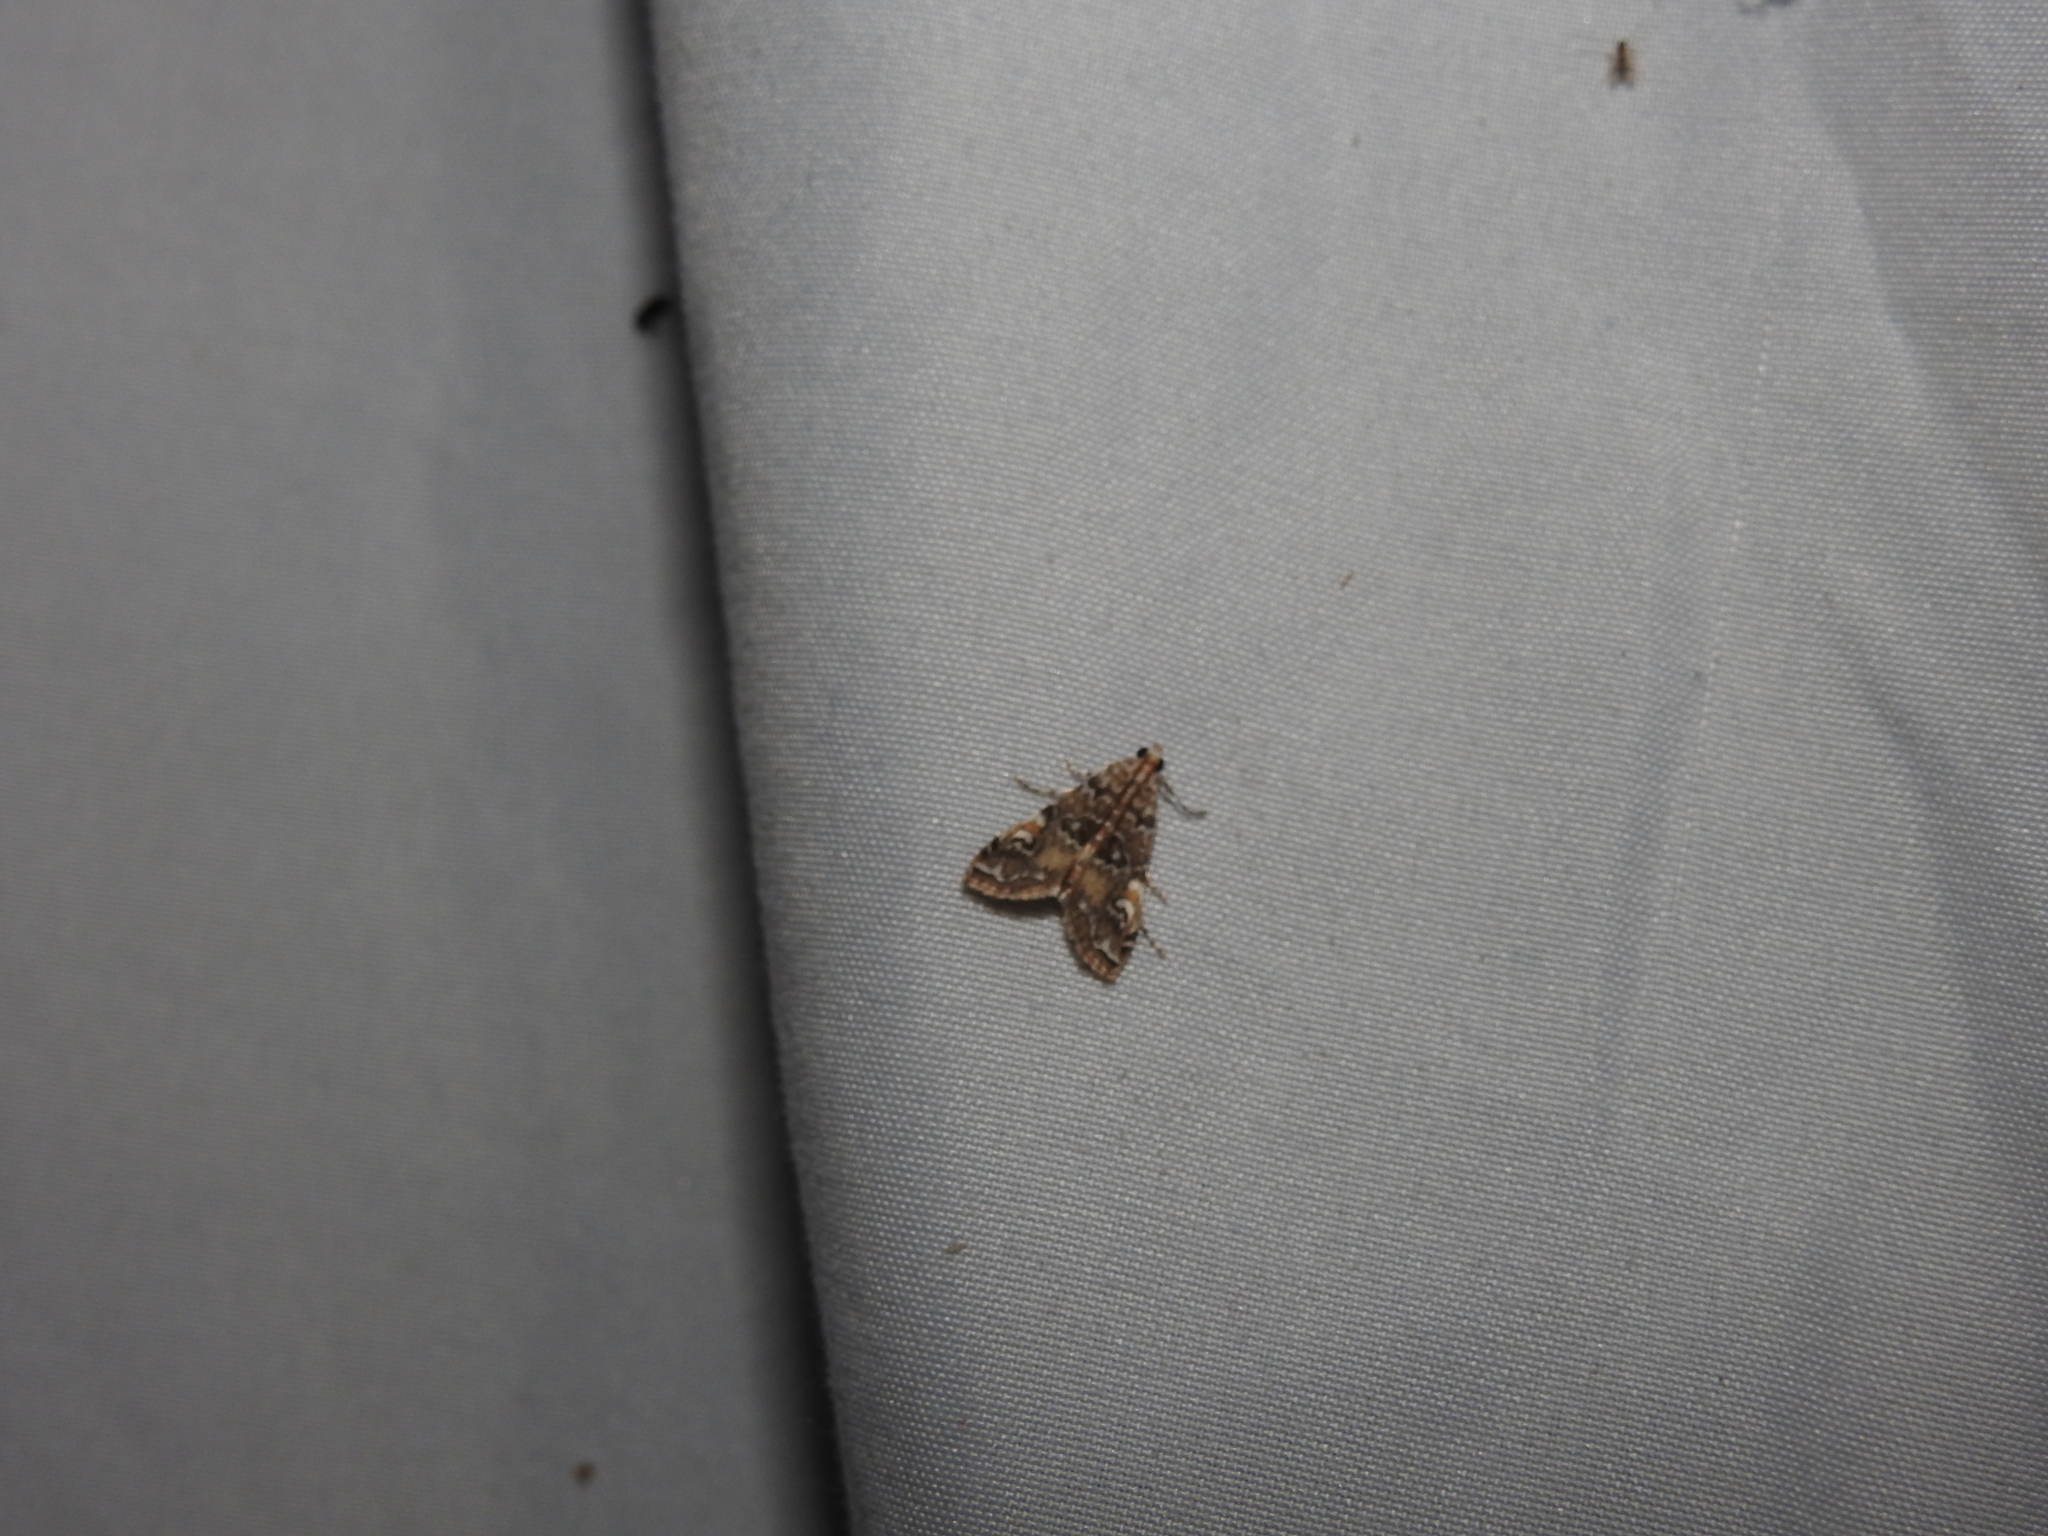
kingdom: Animalia
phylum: Arthropoda
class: Insecta
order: Lepidoptera
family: Crambidae
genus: Elophila
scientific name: Elophila gyralis
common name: Waterlily borer moth
